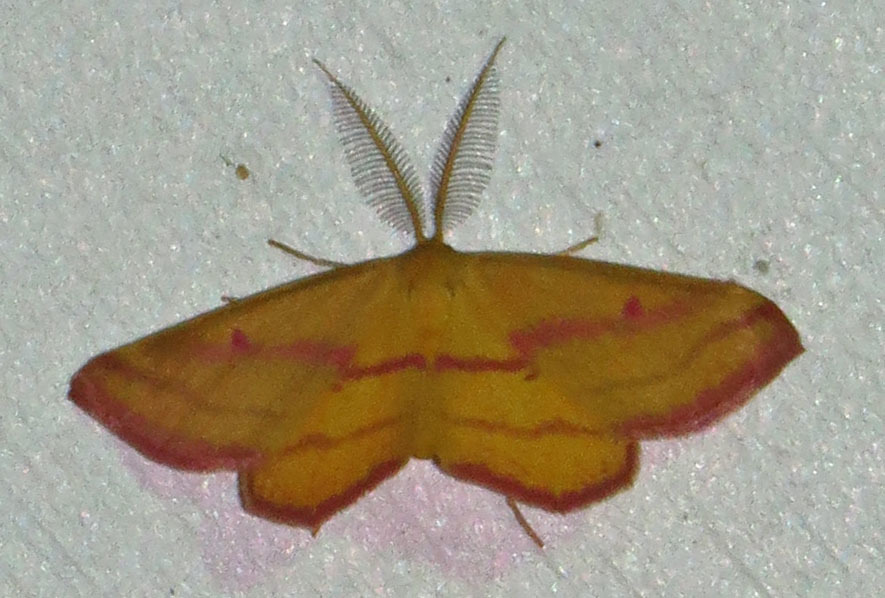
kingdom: Animalia
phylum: Arthropoda
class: Insecta
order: Lepidoptera
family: Geometridae
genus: Haematopis
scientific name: Haematopis grataria
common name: Chickweed geometer
